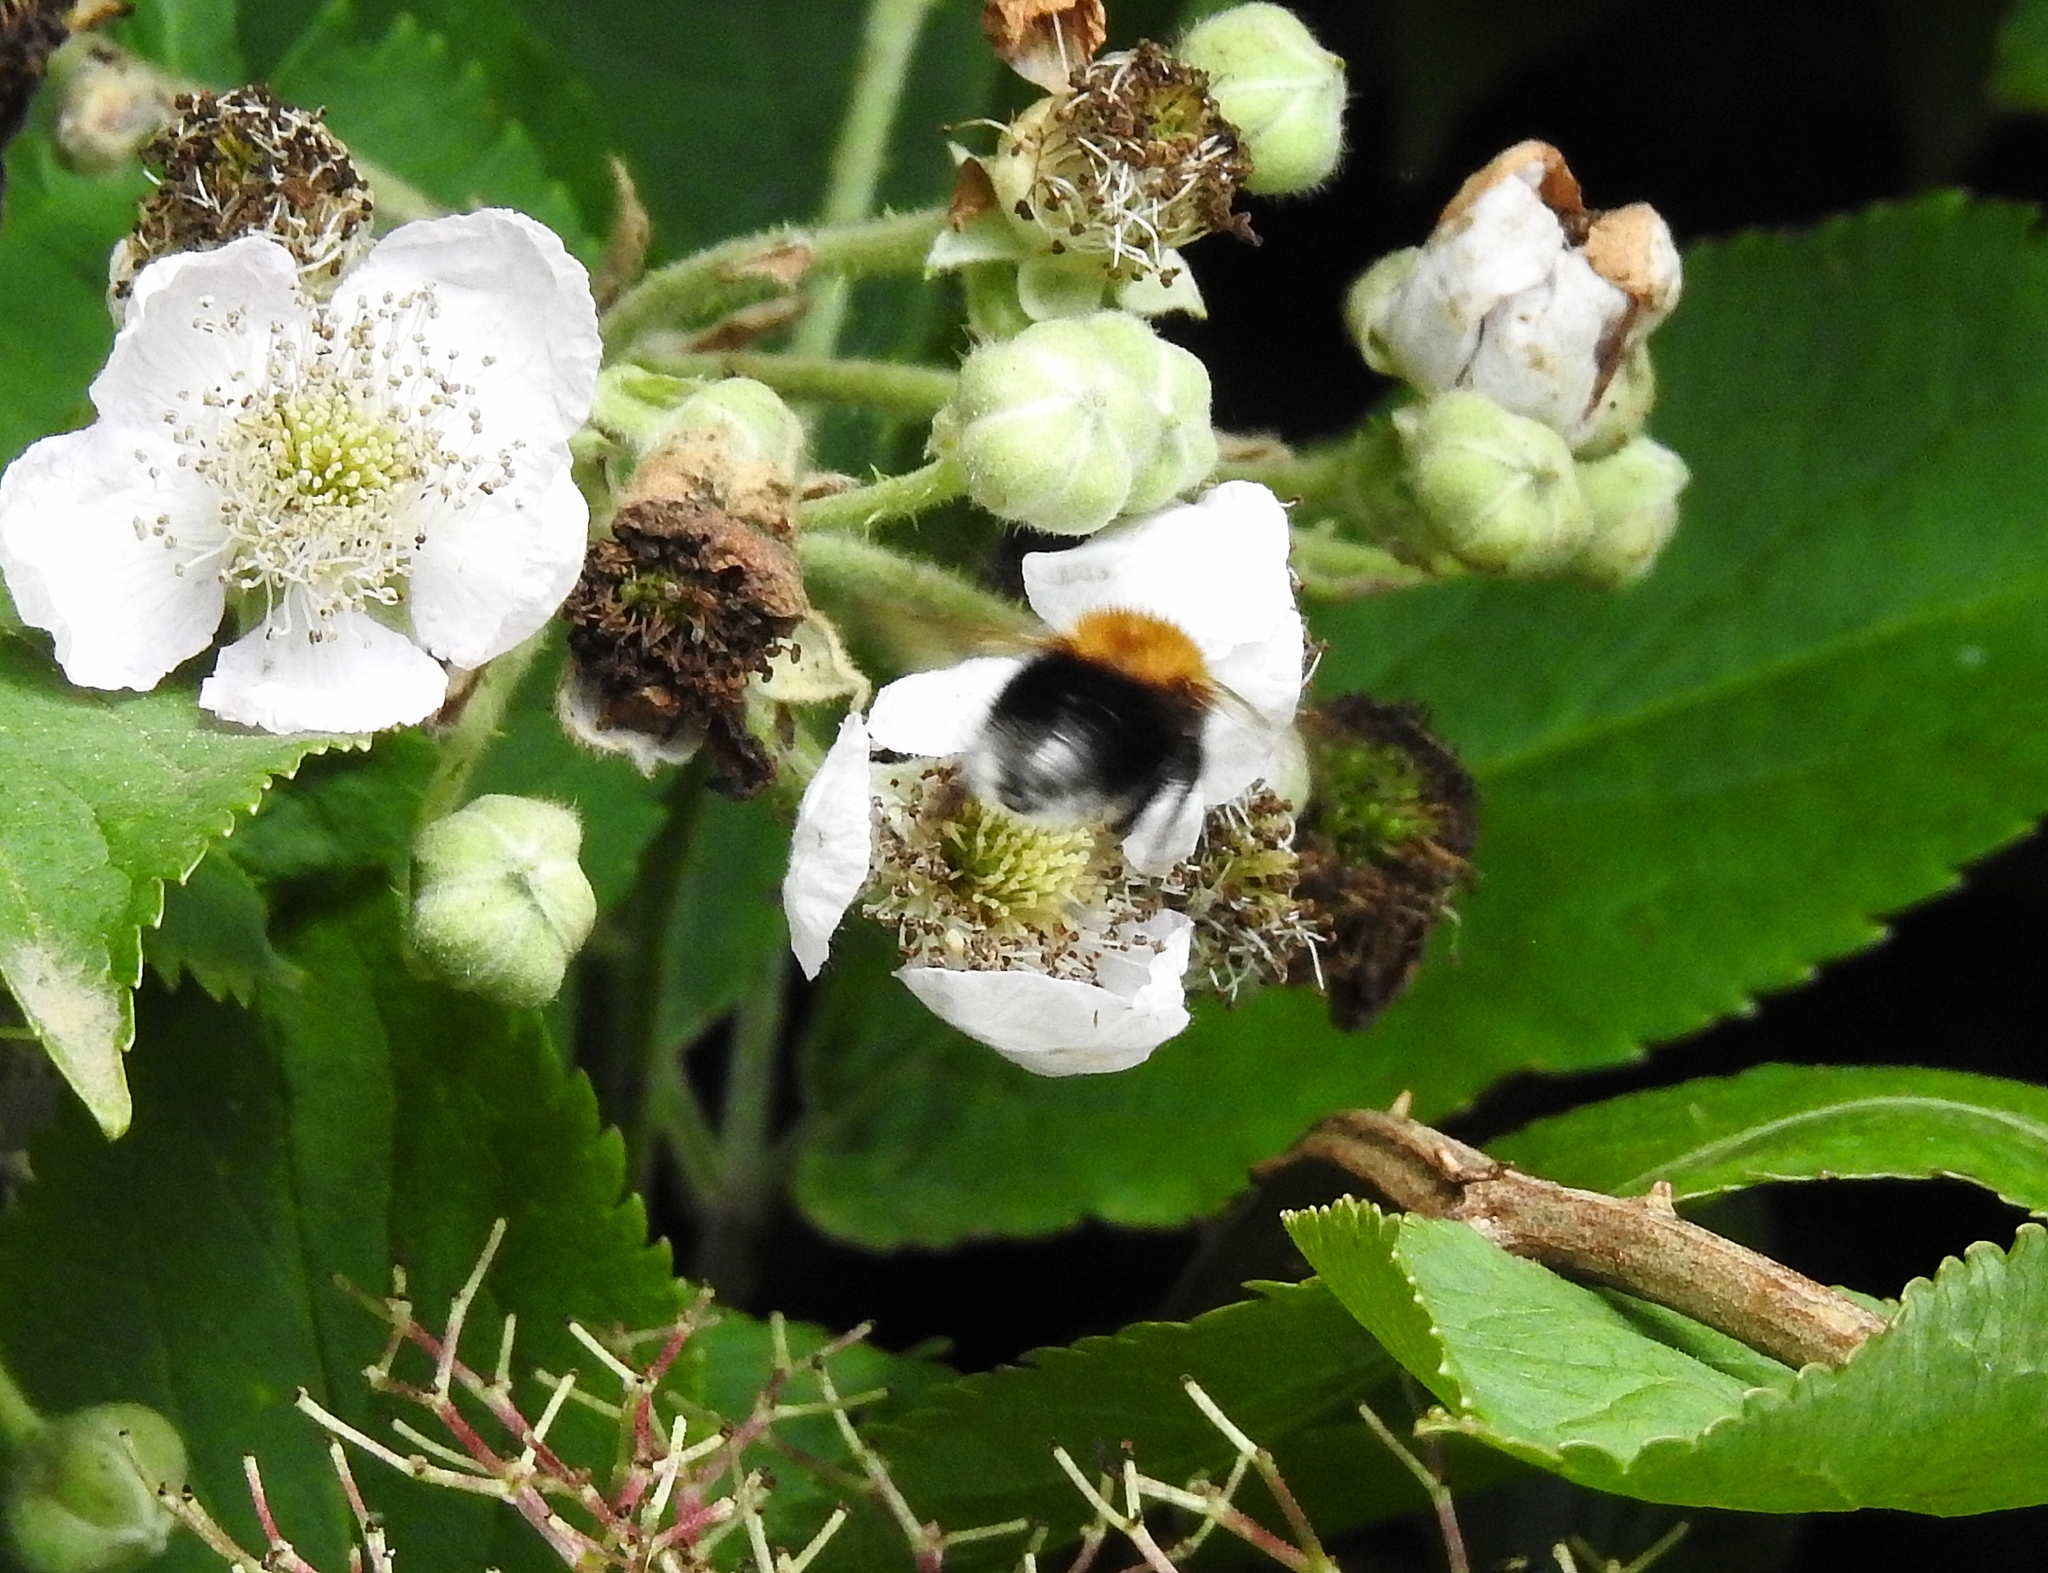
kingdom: Animalia
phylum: Arthropoda
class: Insecta
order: Hymenoptera
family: Apidae
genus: Bombus
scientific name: Bombus hypnorum
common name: New garden bumblebee
